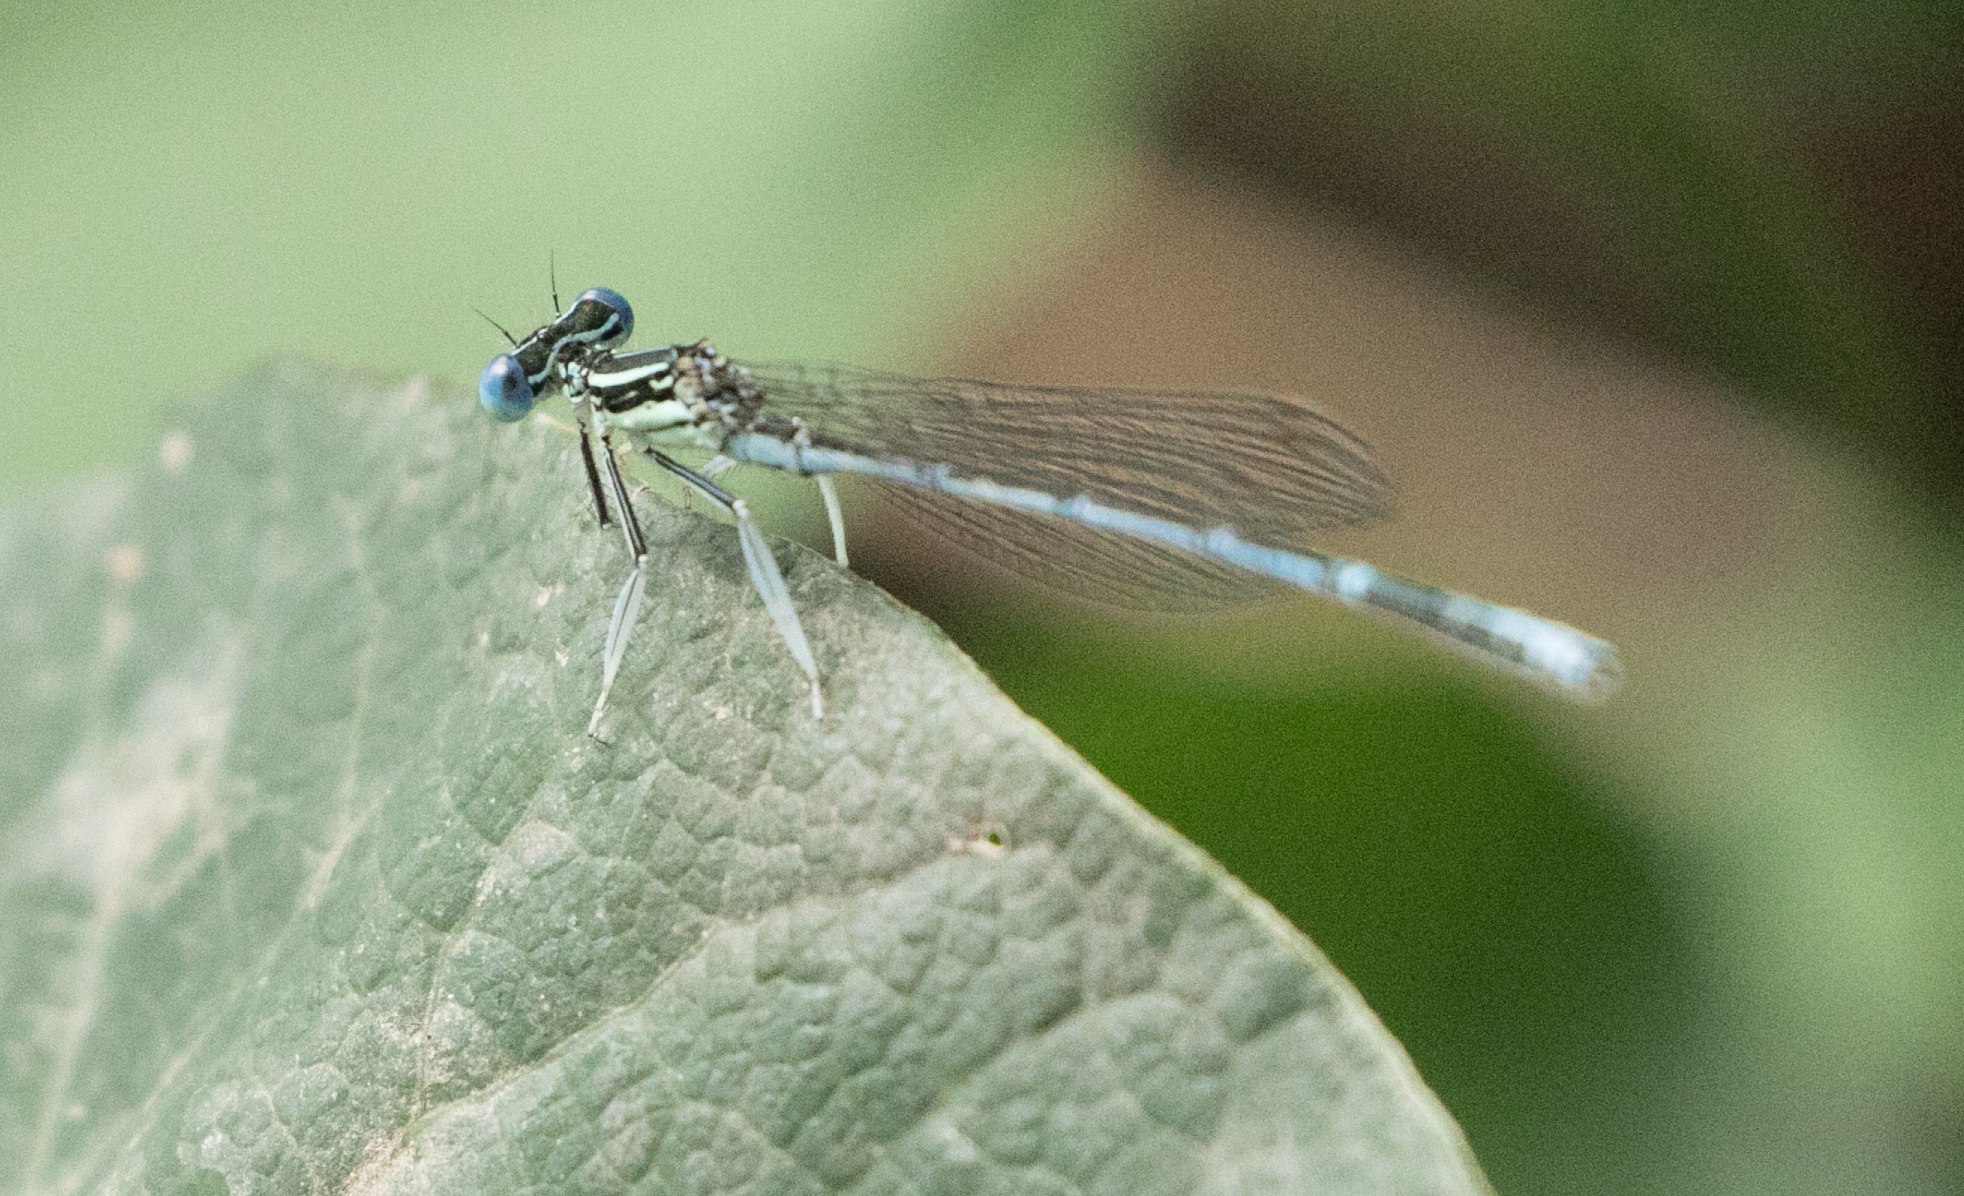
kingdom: Animalia
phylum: Arthropoda
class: Insecta
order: Odonata
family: Platycnemididae
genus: Platycnemis
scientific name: Platycnemis pennipes
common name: White-legged damselfly
